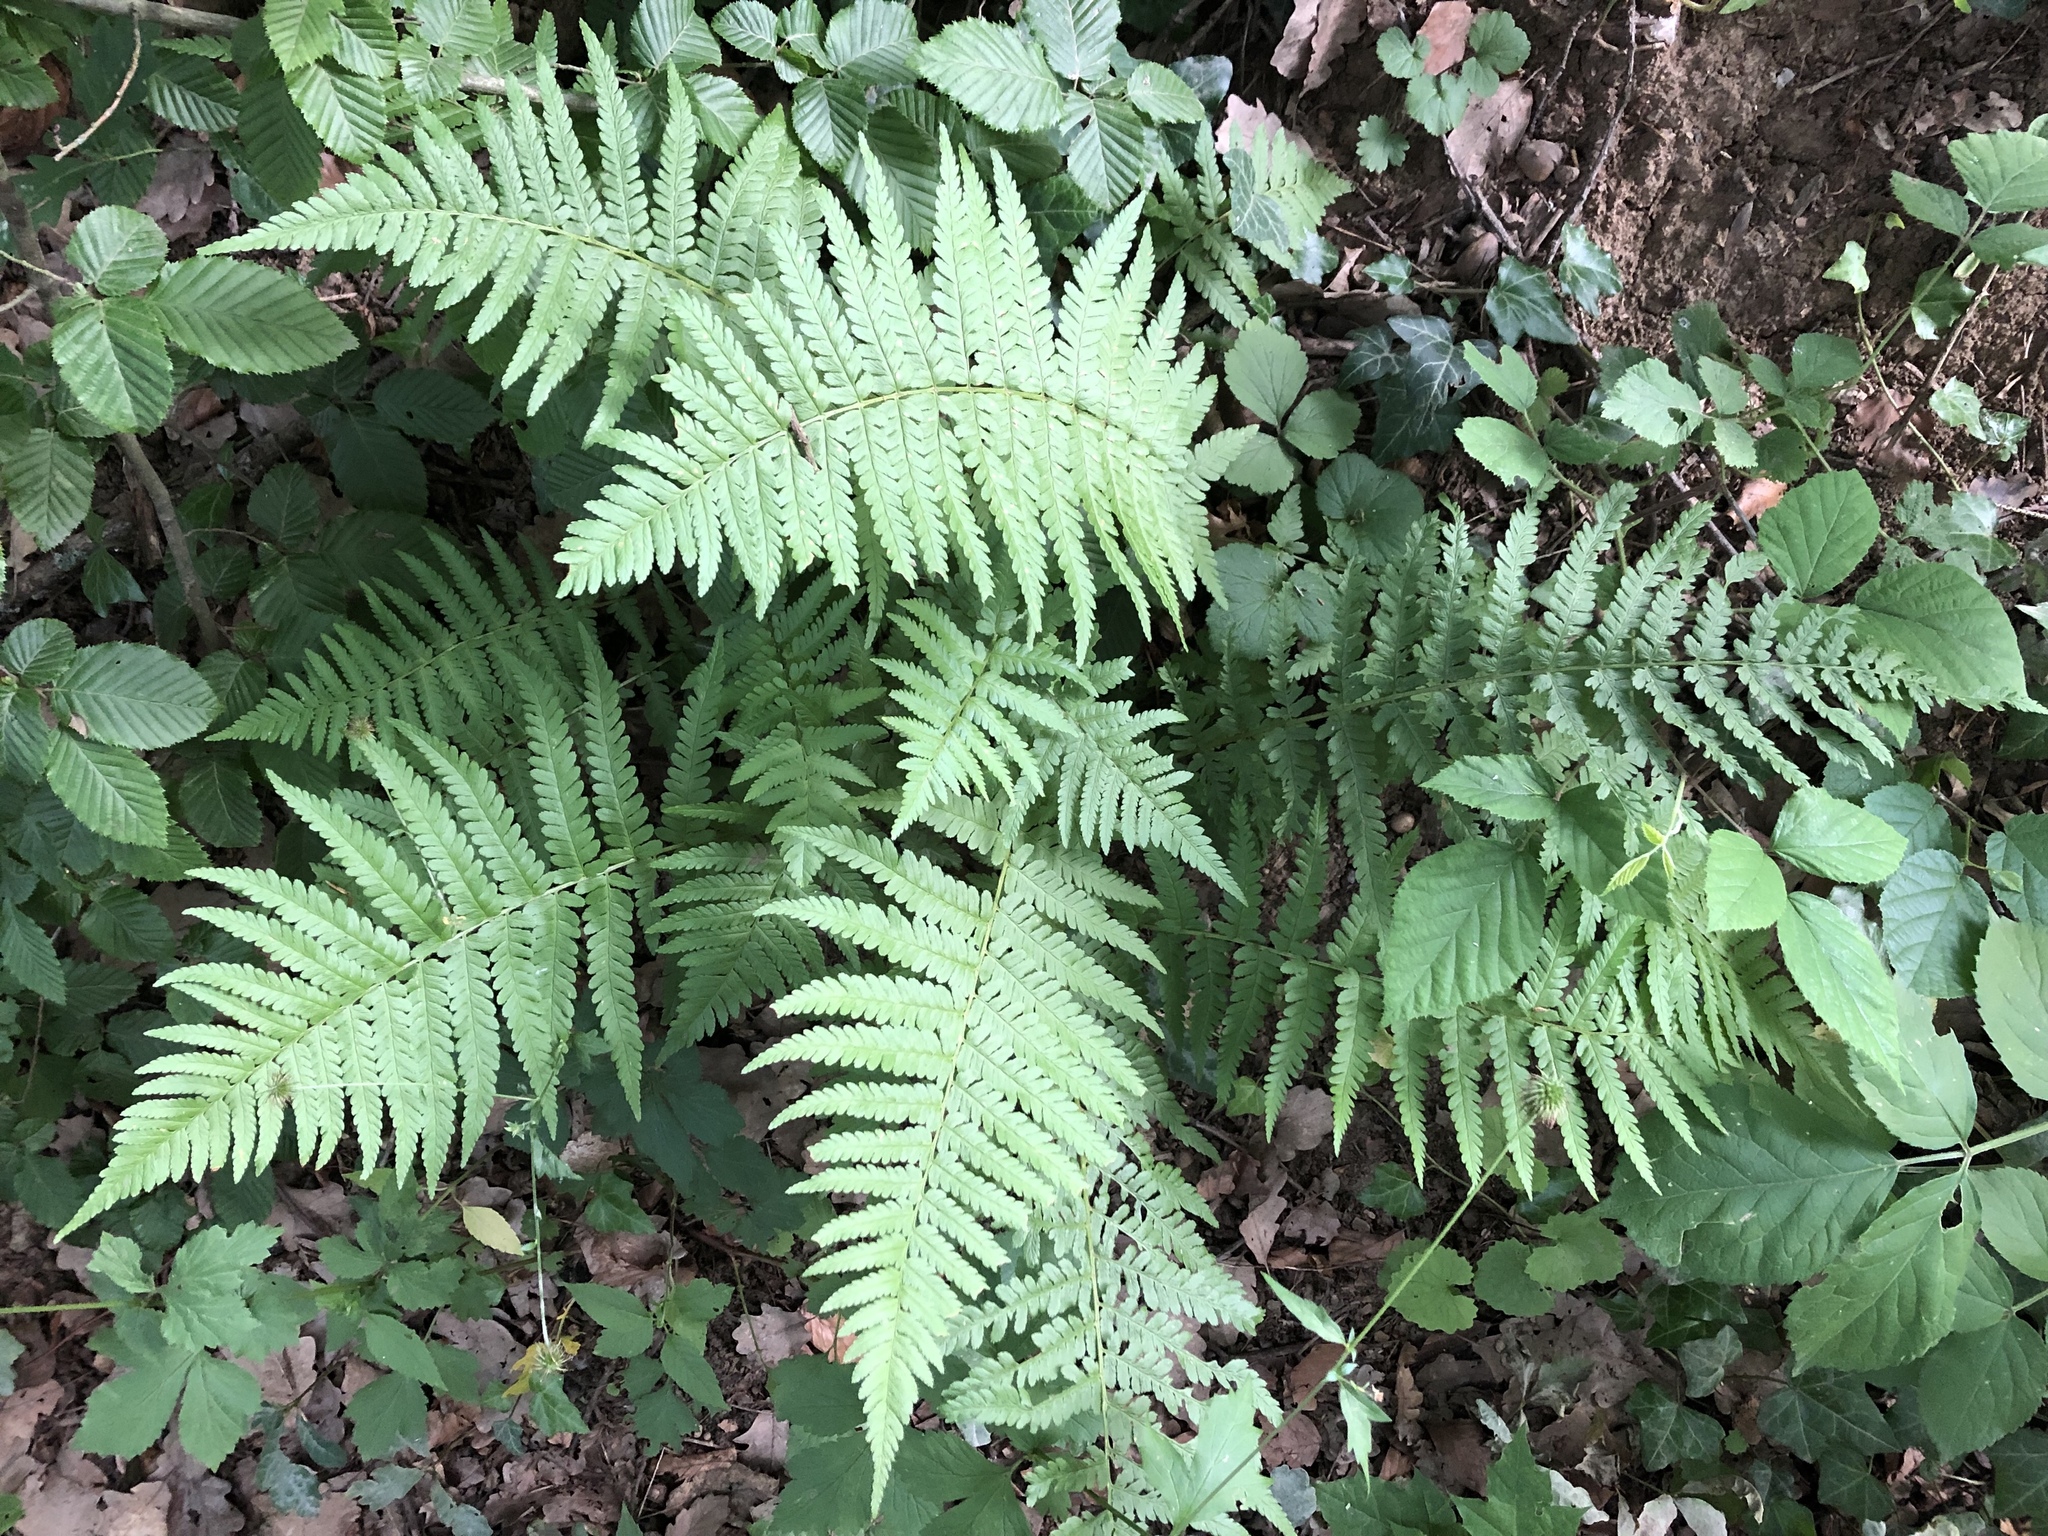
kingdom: Plantae
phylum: Tracheophyta
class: Polypodiopsida
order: Polypodiales
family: Dryopteridaceae
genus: Dryopteris
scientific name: Dryopteris filix-mas
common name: Male fern
